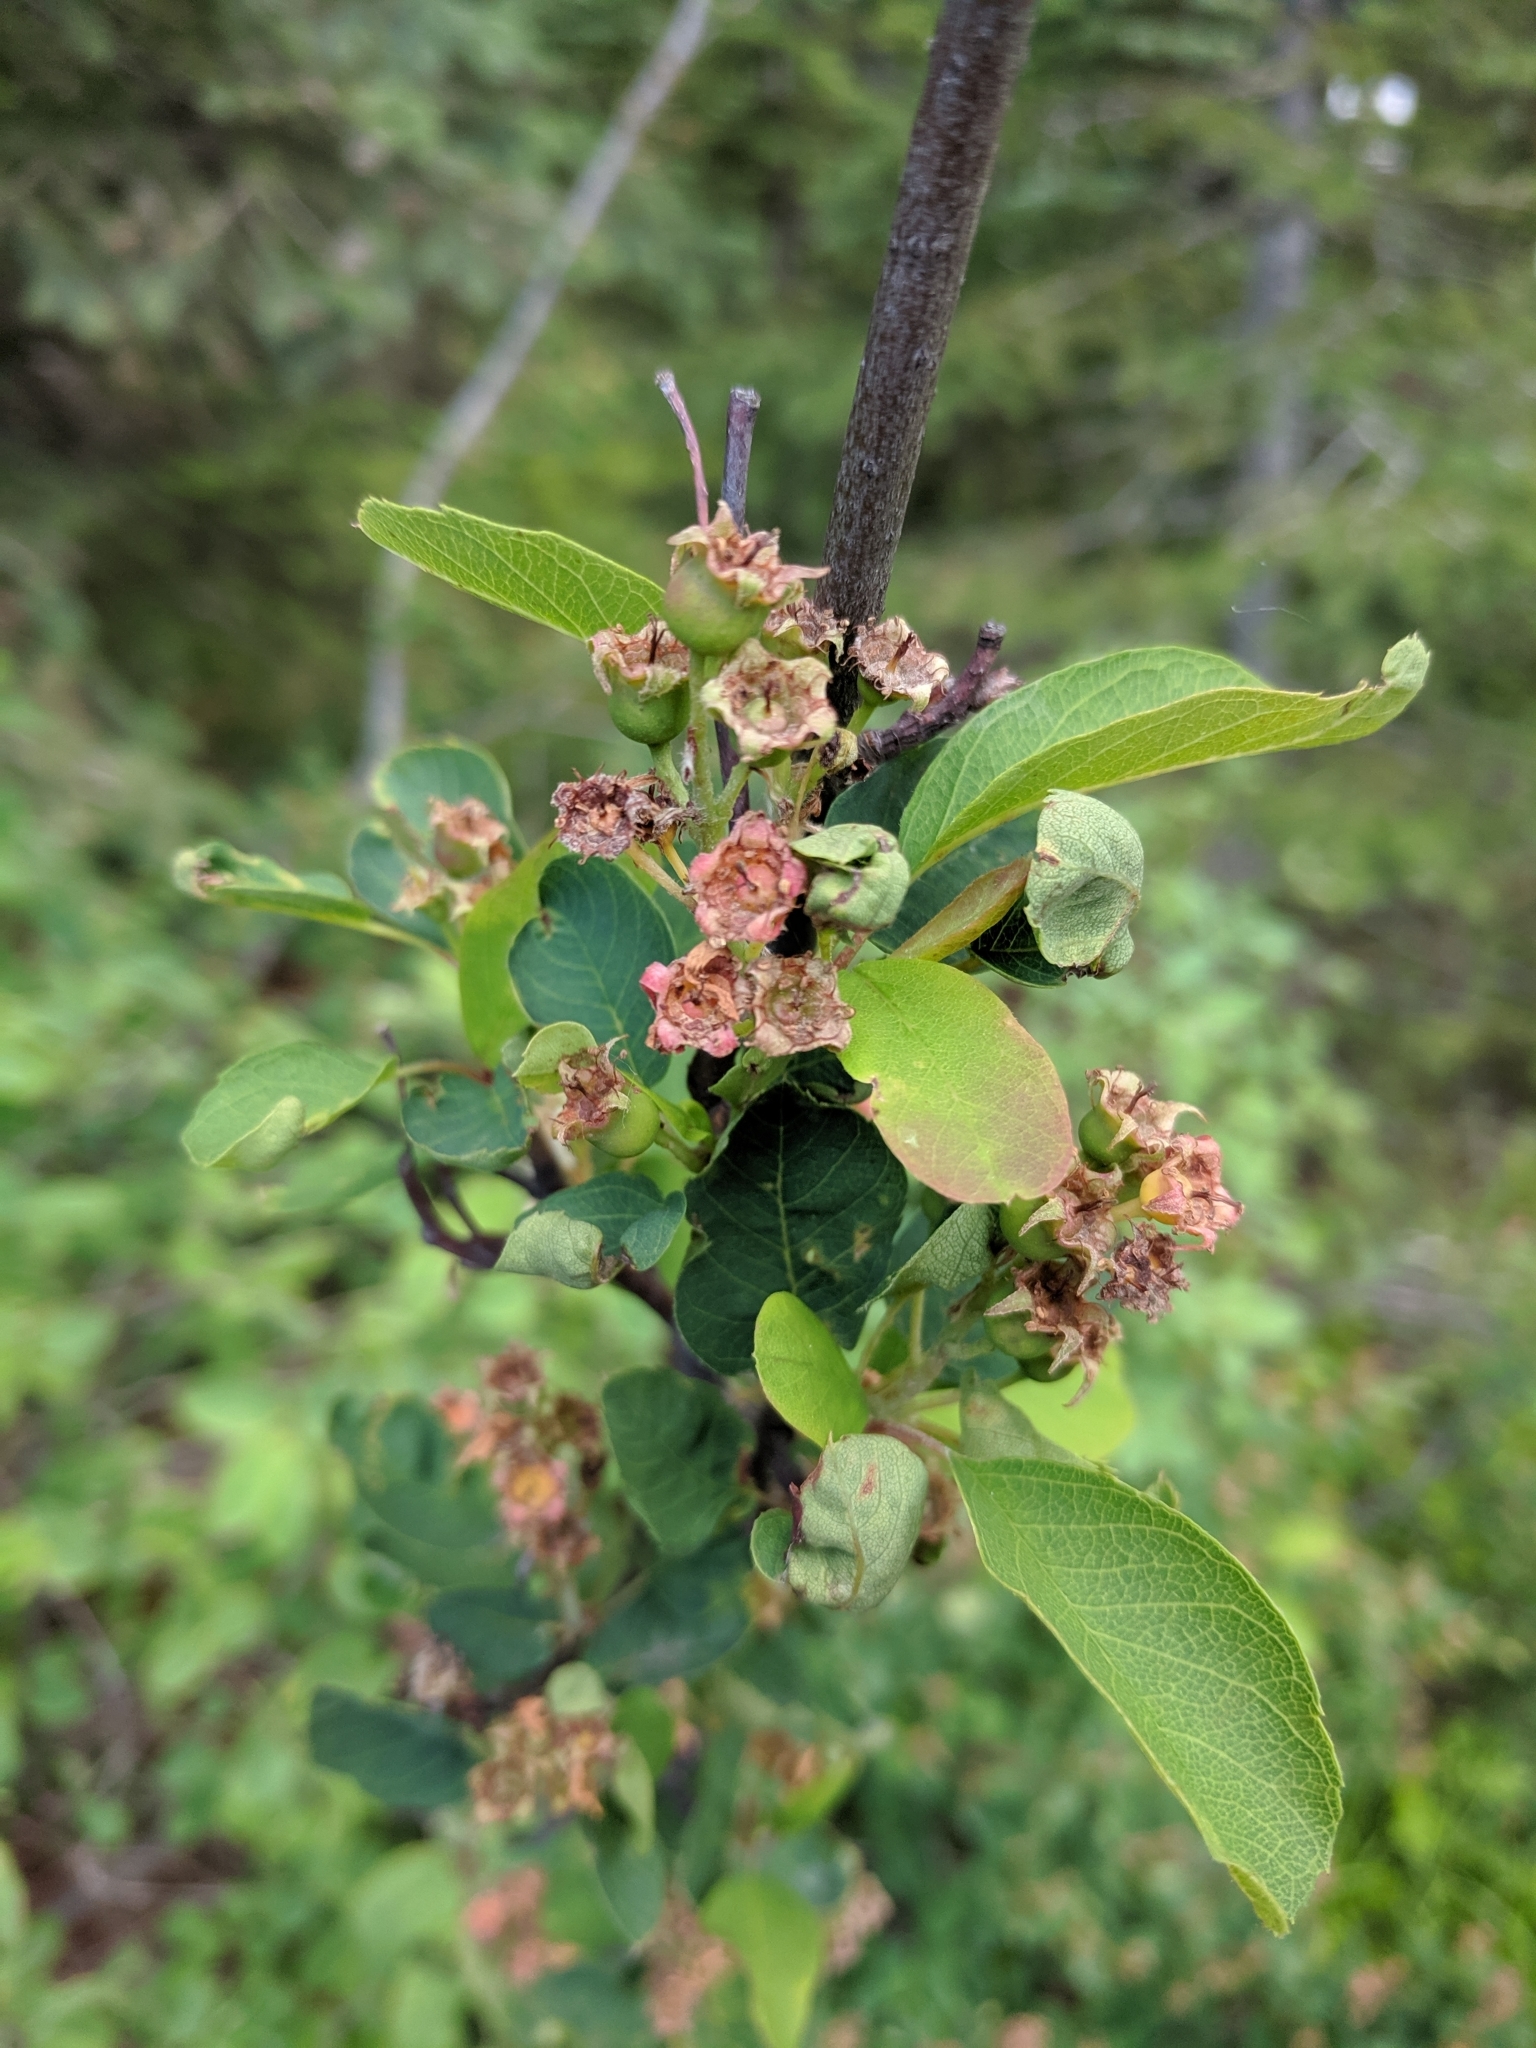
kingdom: Plantae
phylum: Tracheophyta
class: Magnoliopsida
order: Rosales
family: Rosaceae
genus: Amelanchier
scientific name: Amelanchier alnifolia
